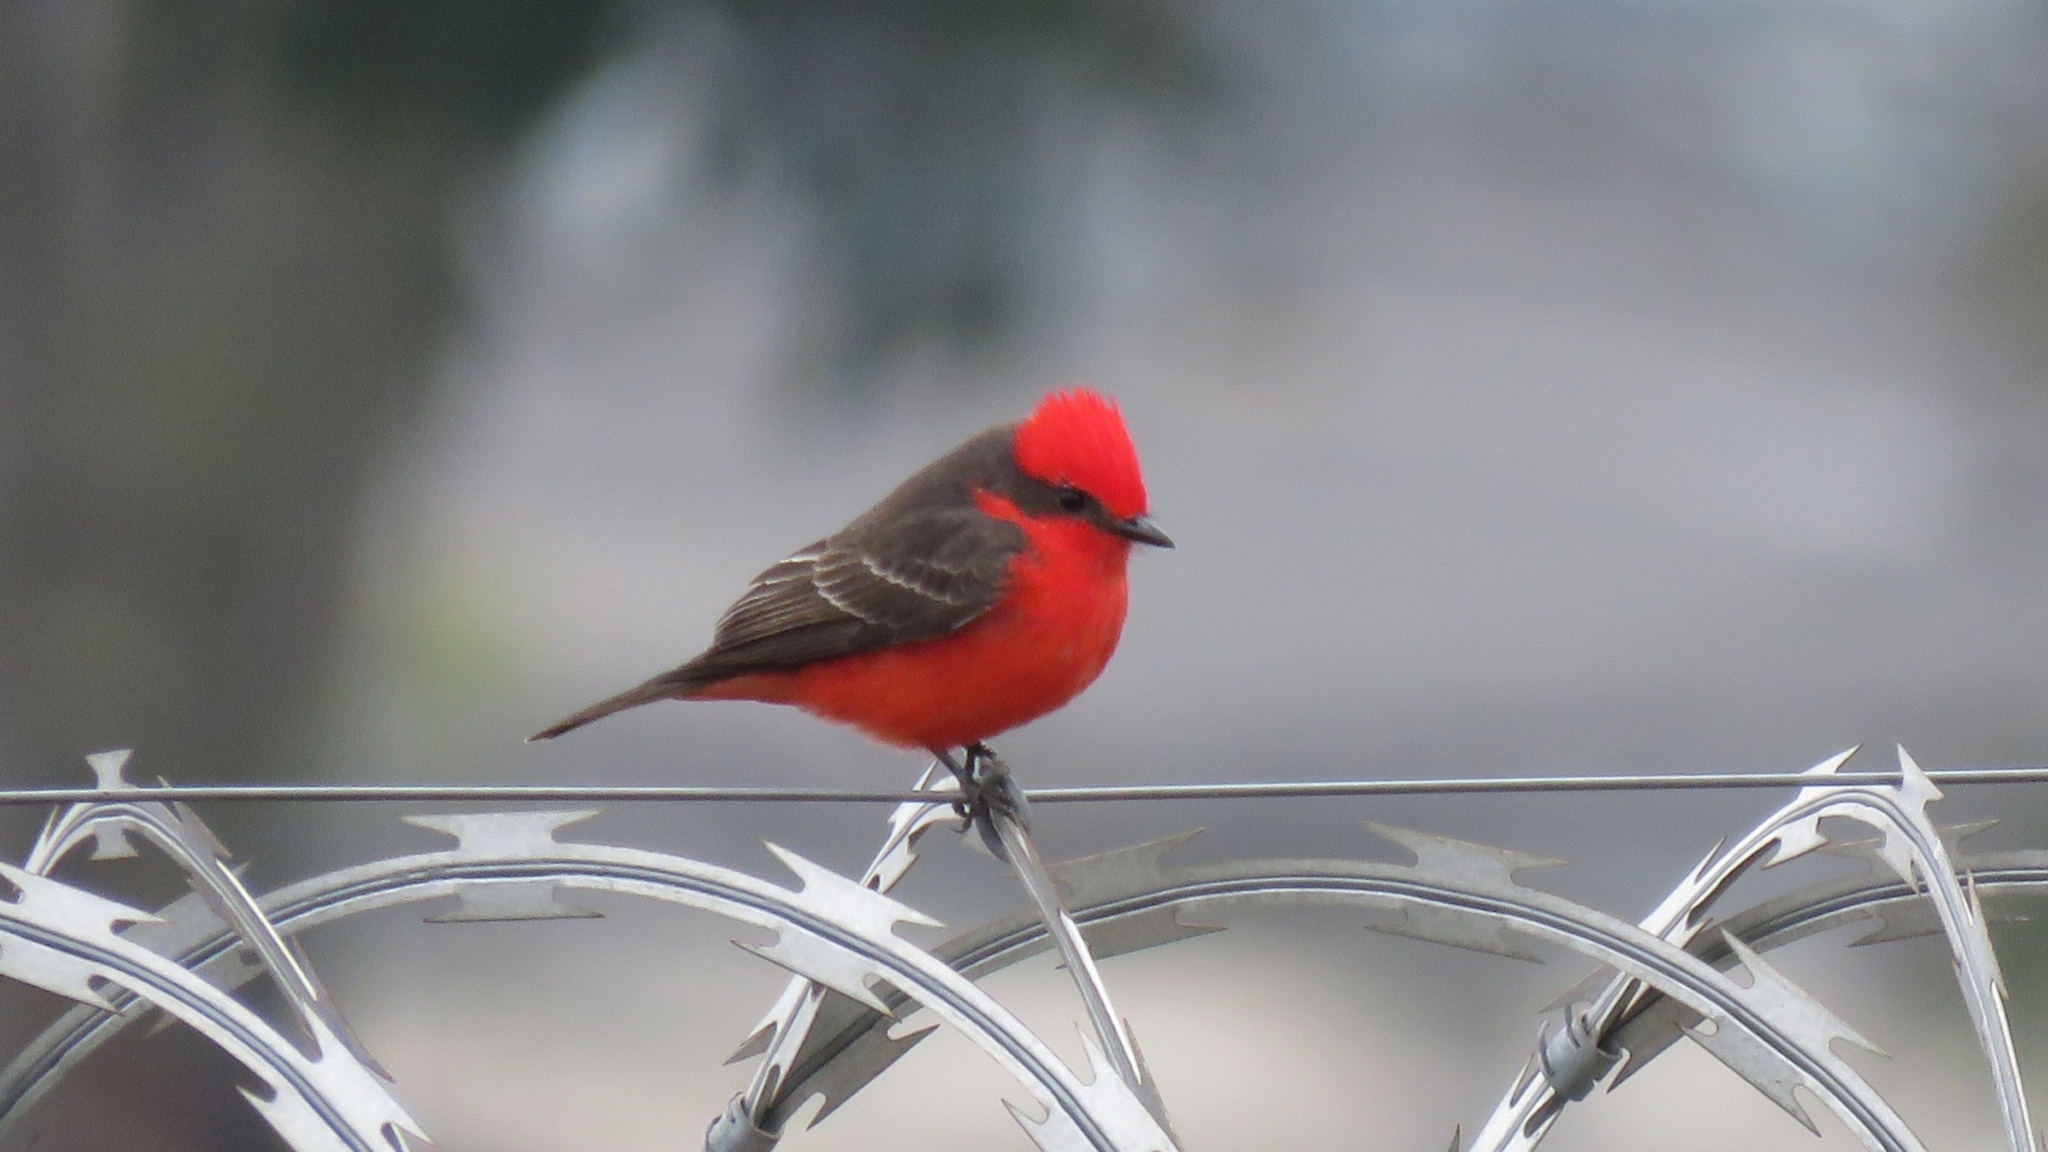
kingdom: Animalia
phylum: Chordata
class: Aves
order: Passeriformes
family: Tyrannidae
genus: Pyrocephalus
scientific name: Pyrocephalus rubinus
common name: Vermilion flycatcher
